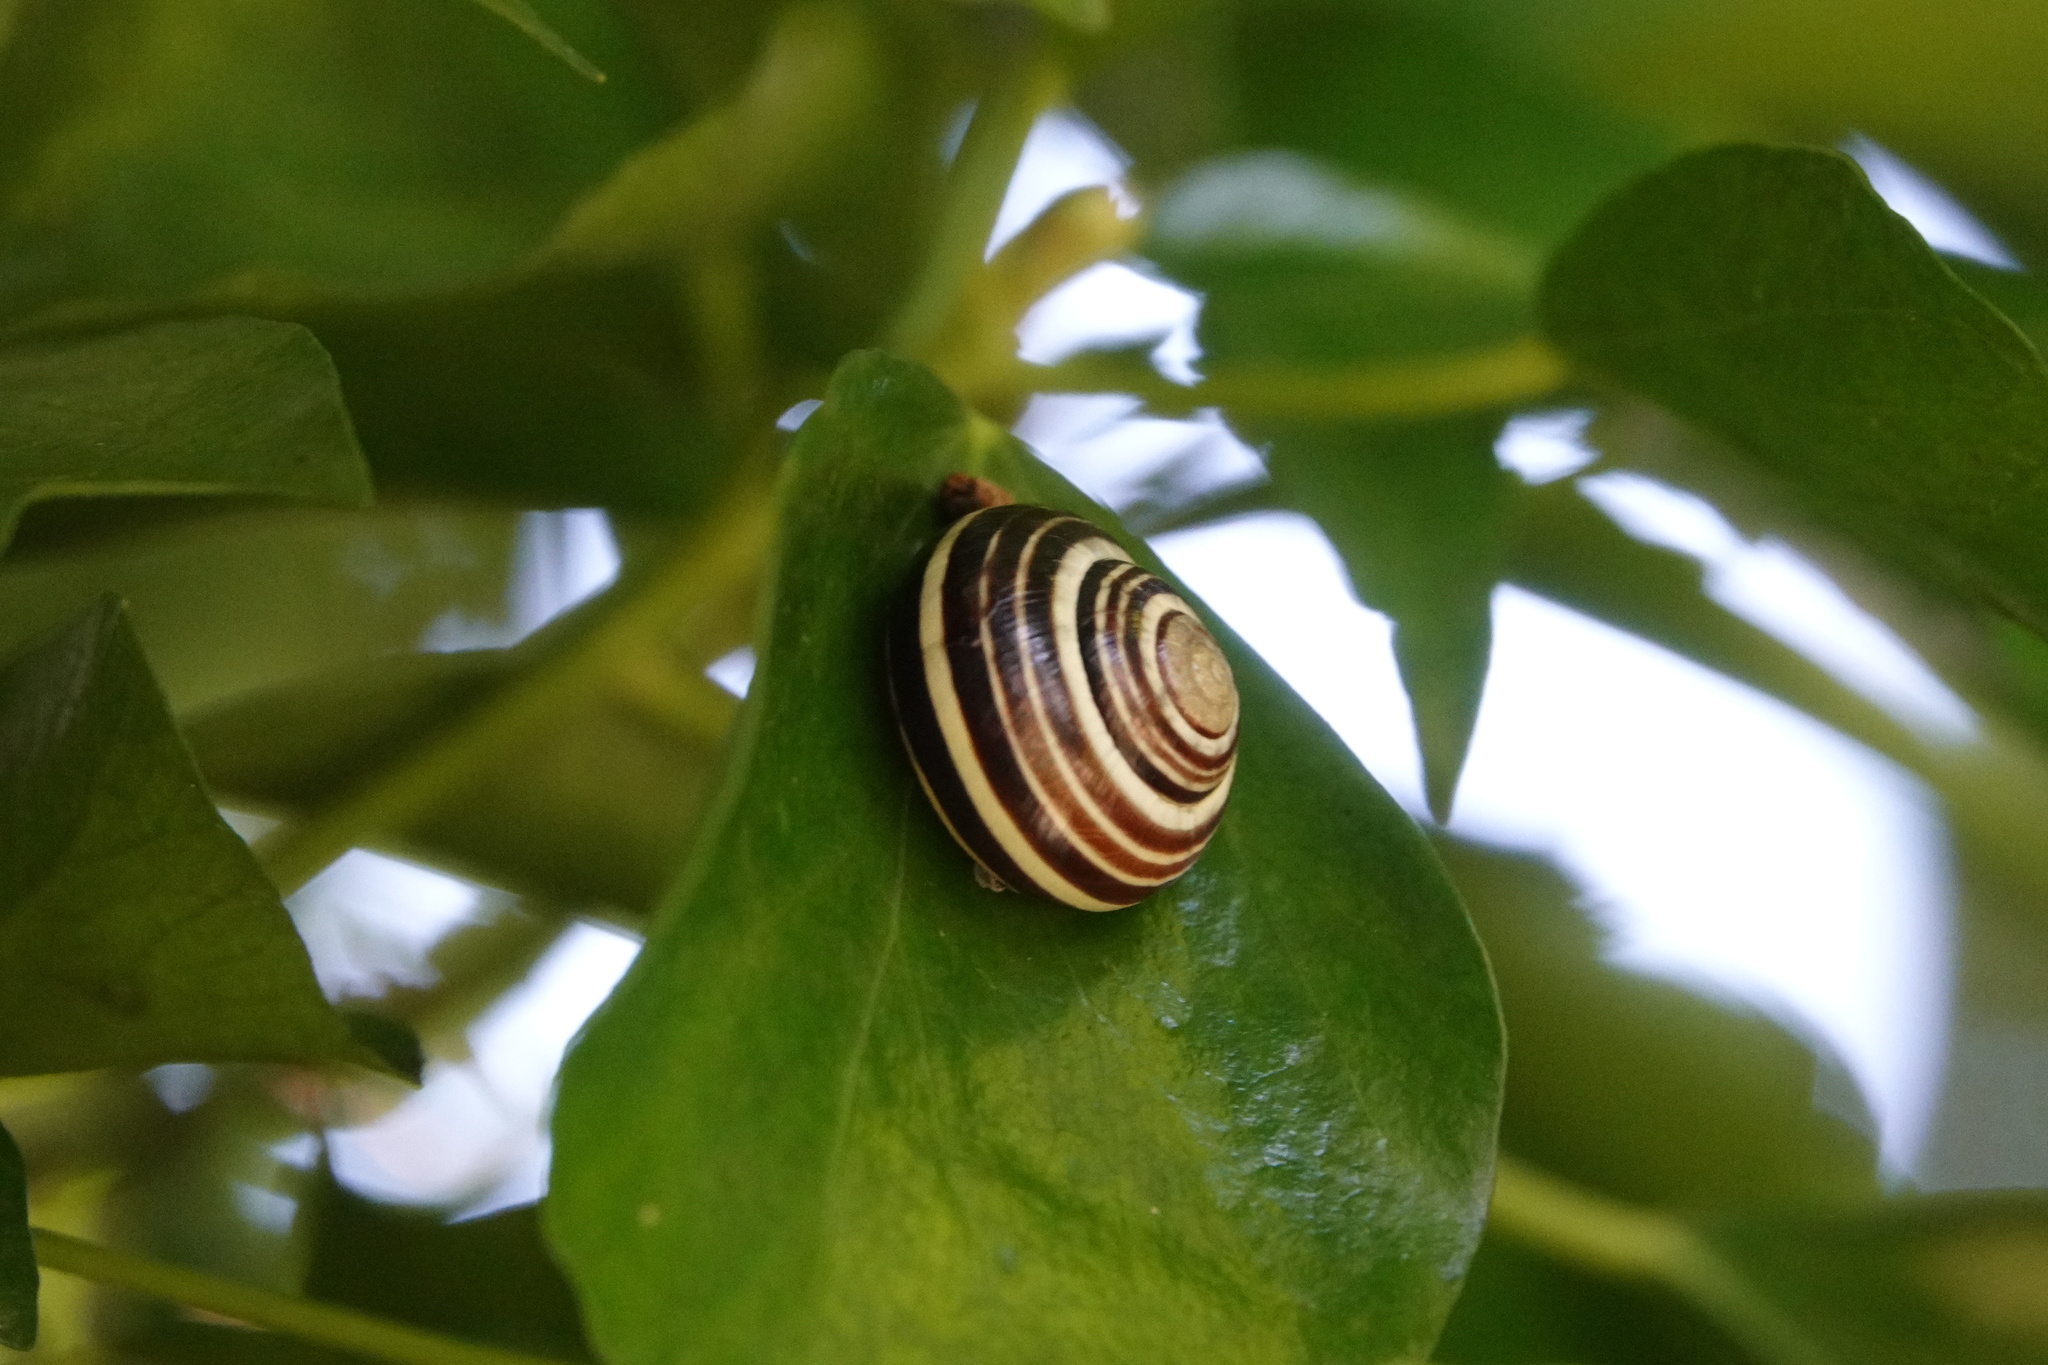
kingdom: Animalia
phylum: Mollusca
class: Gastropoda
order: Stylommatophora
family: Helicidae
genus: Cepaea
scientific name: Cepaea
